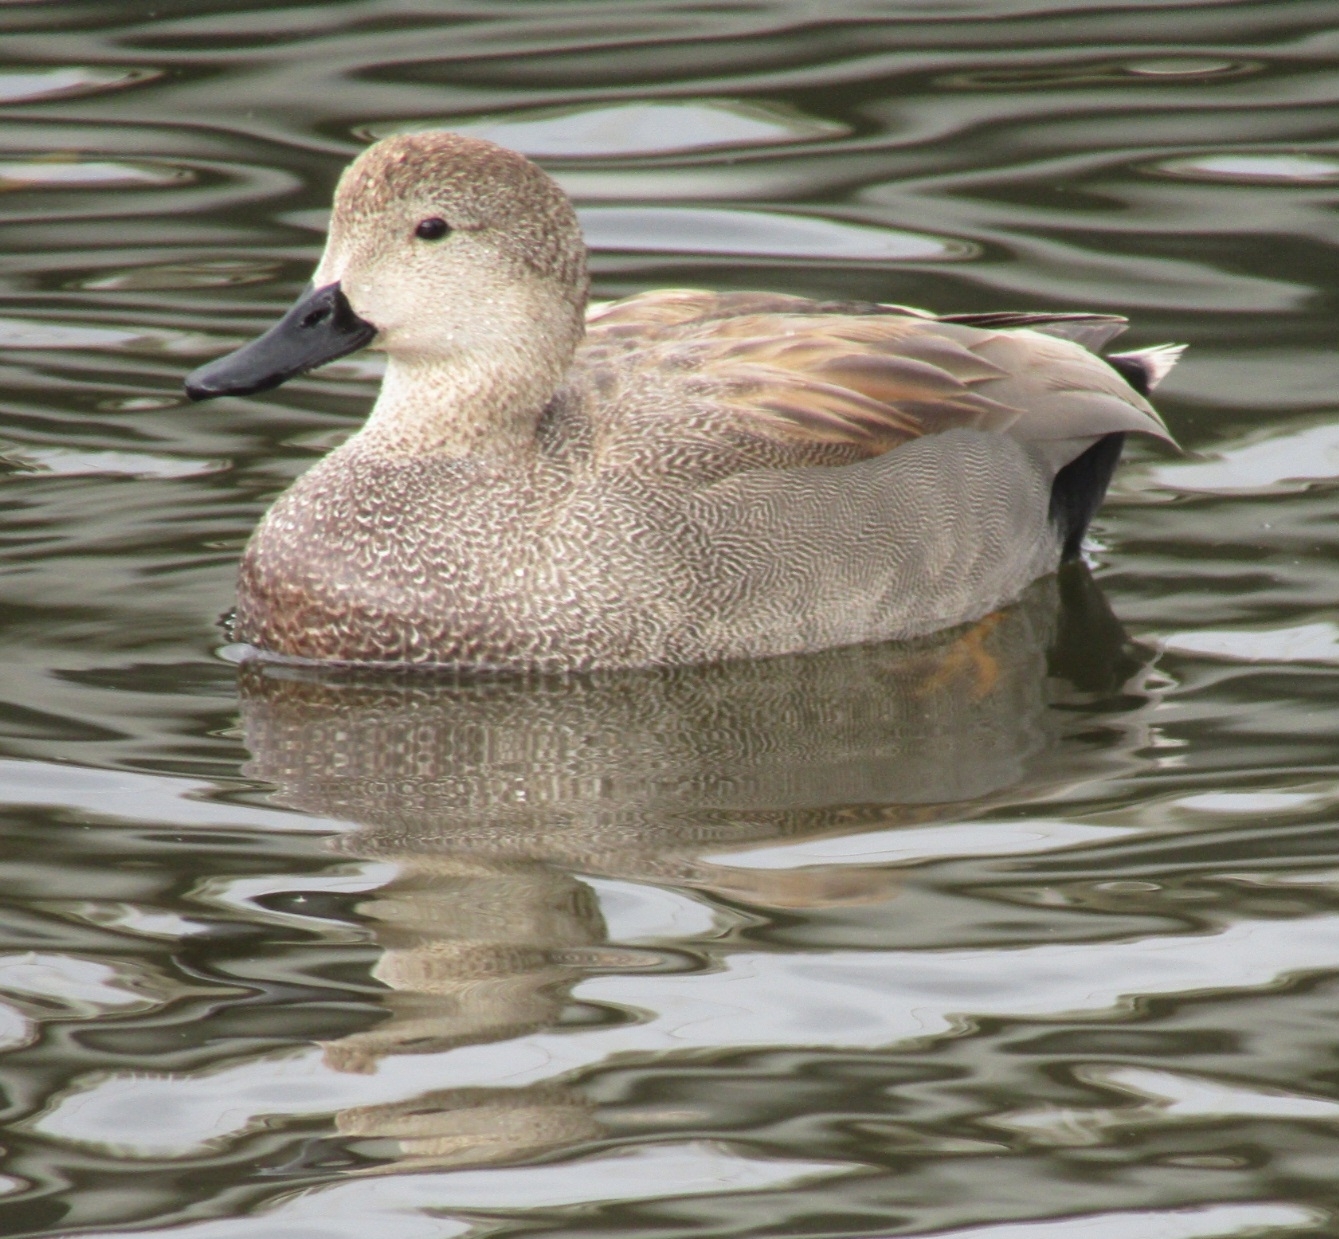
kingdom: Animalia
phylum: Chordata
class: Aves
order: Anseriformes
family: Anatidae
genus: Mareca
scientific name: Mareca strepera
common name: Gadwall
